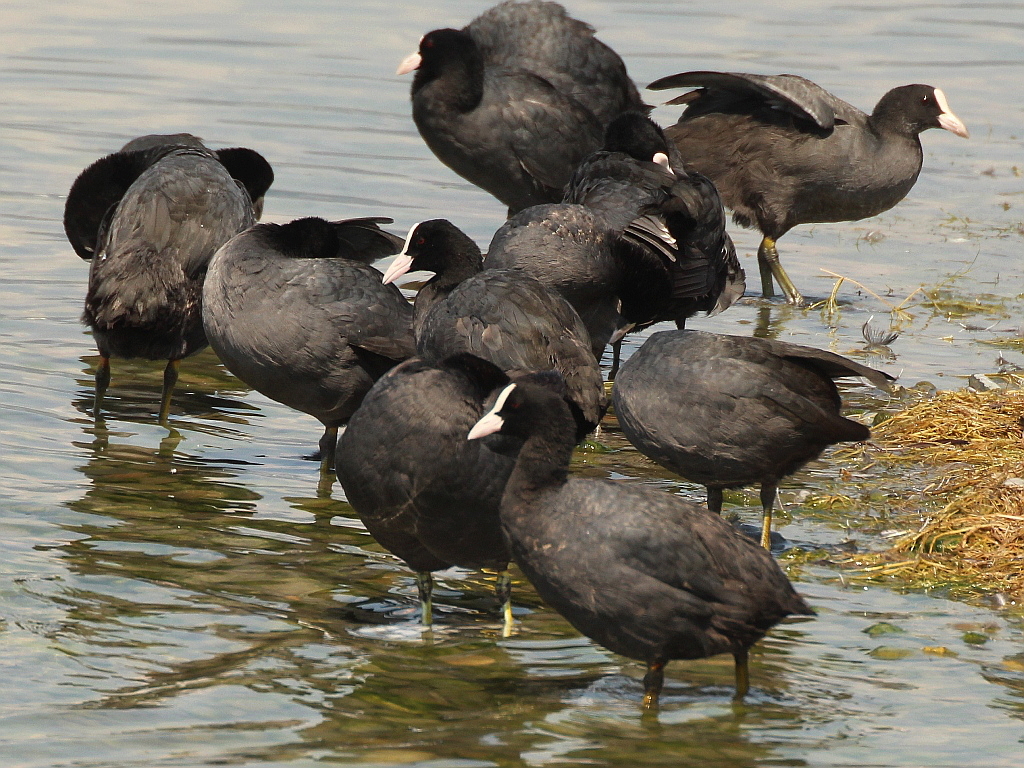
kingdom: Animalia
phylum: Chordata
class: Aves
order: Gruiformes
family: Rallidae
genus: Fulica
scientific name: Fulica atra
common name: Eurasian coot
